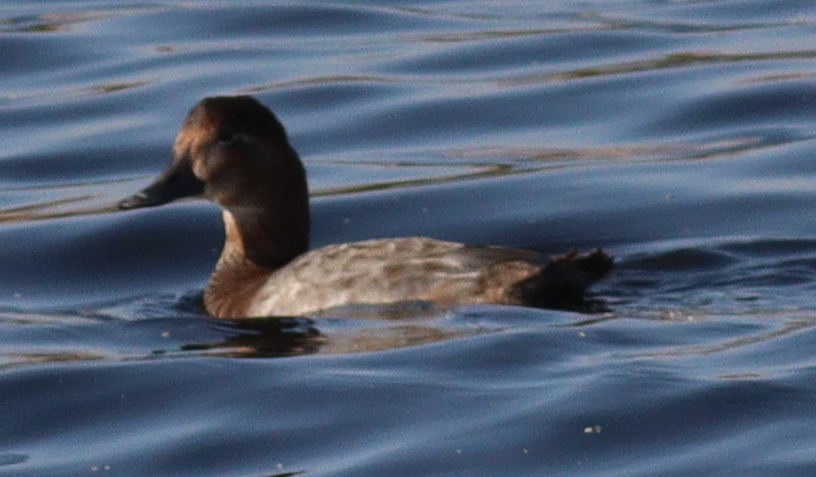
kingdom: Animalia
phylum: Chordata
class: Aves
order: Anseriformes
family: Anatidae
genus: Aythya
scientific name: Aythya ferina
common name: Common pochard
